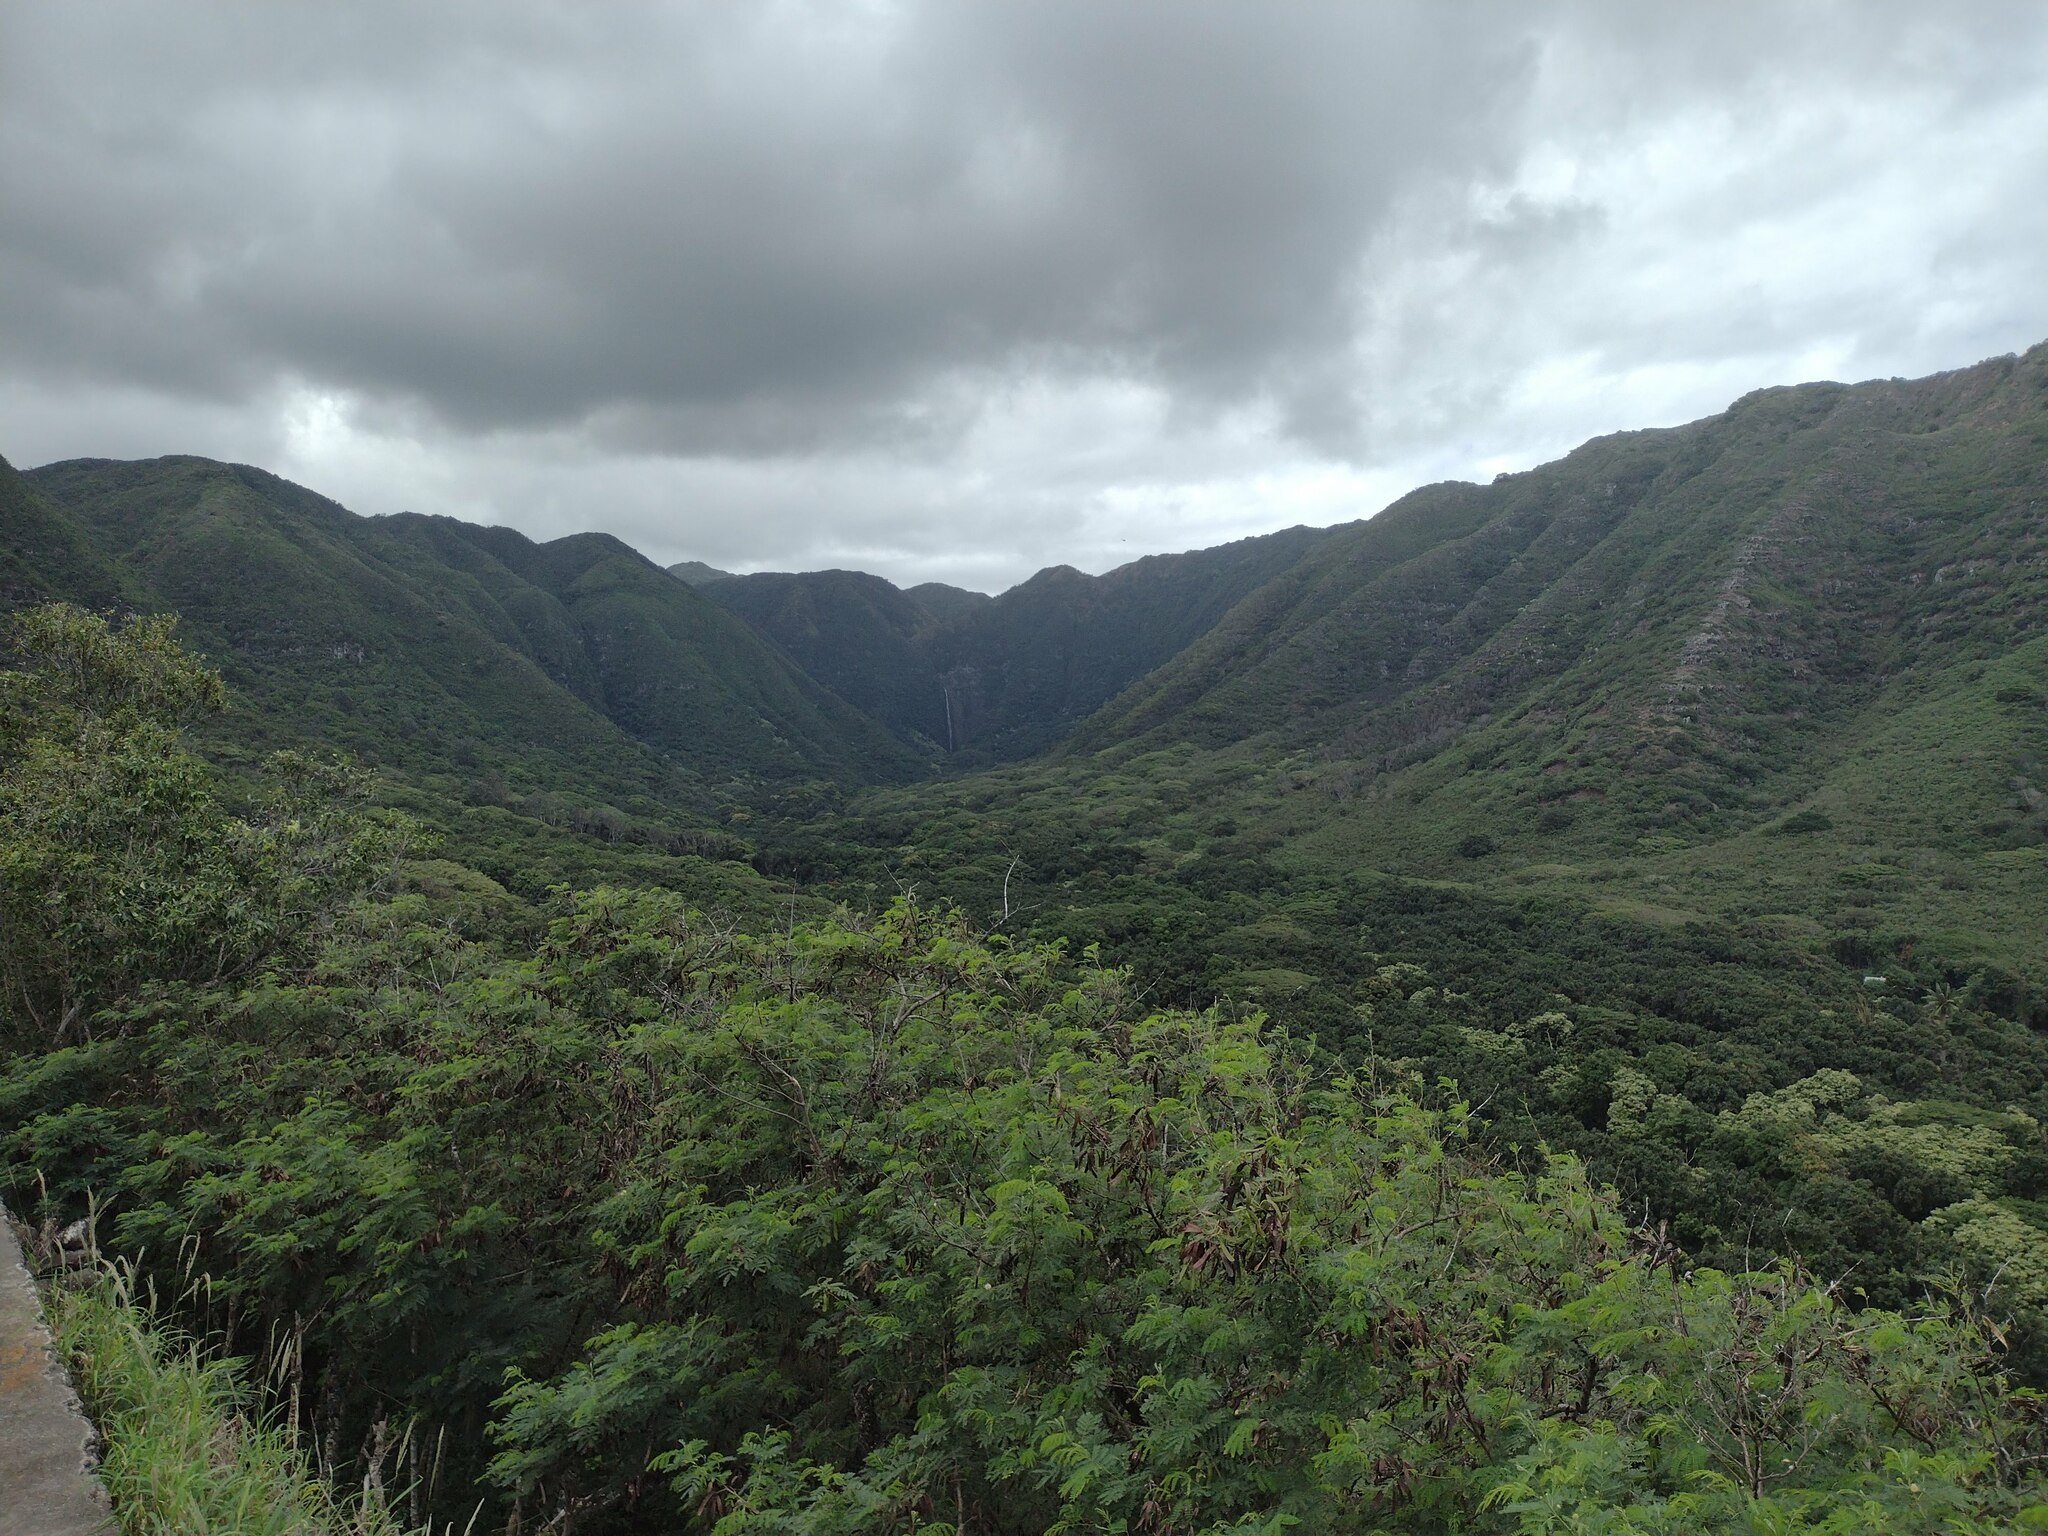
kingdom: Plantae
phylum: Tracheophyta
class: Magnoliopsida
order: Fabales
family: Fabaceae
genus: Leucaena
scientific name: Leucaena leucocephala
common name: White leadtree
